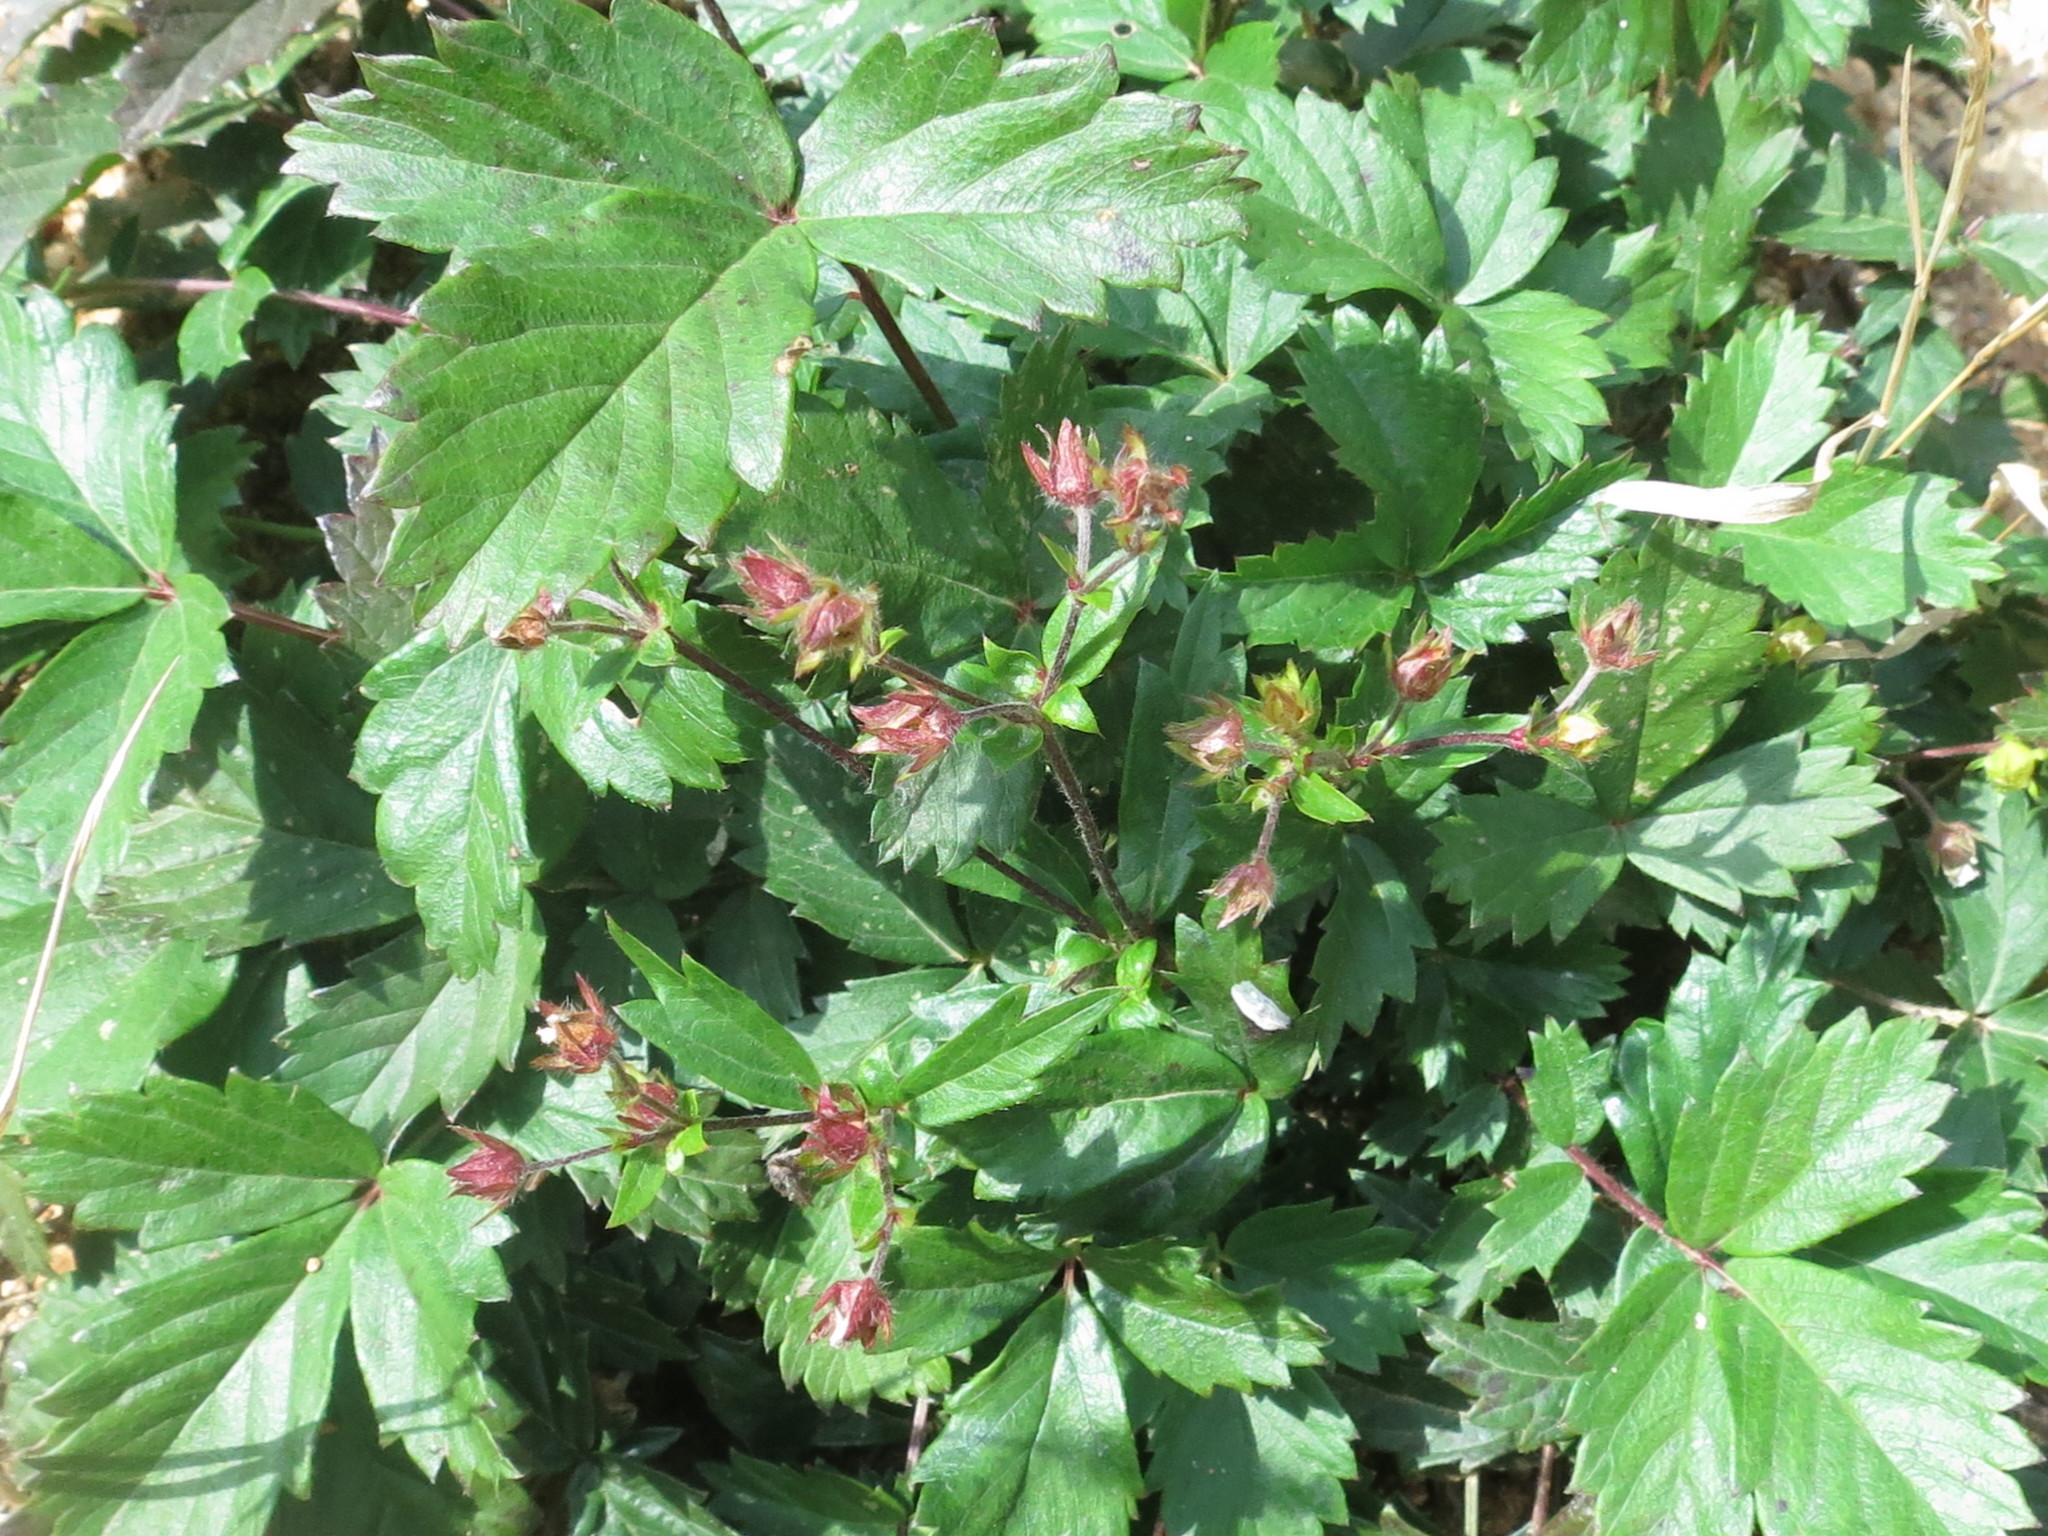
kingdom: Plantae
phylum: Tracheophyta
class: Magnoliopsida
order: Rosales
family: Rosaceae
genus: Potentilla
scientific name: Potentilla fragarioides
